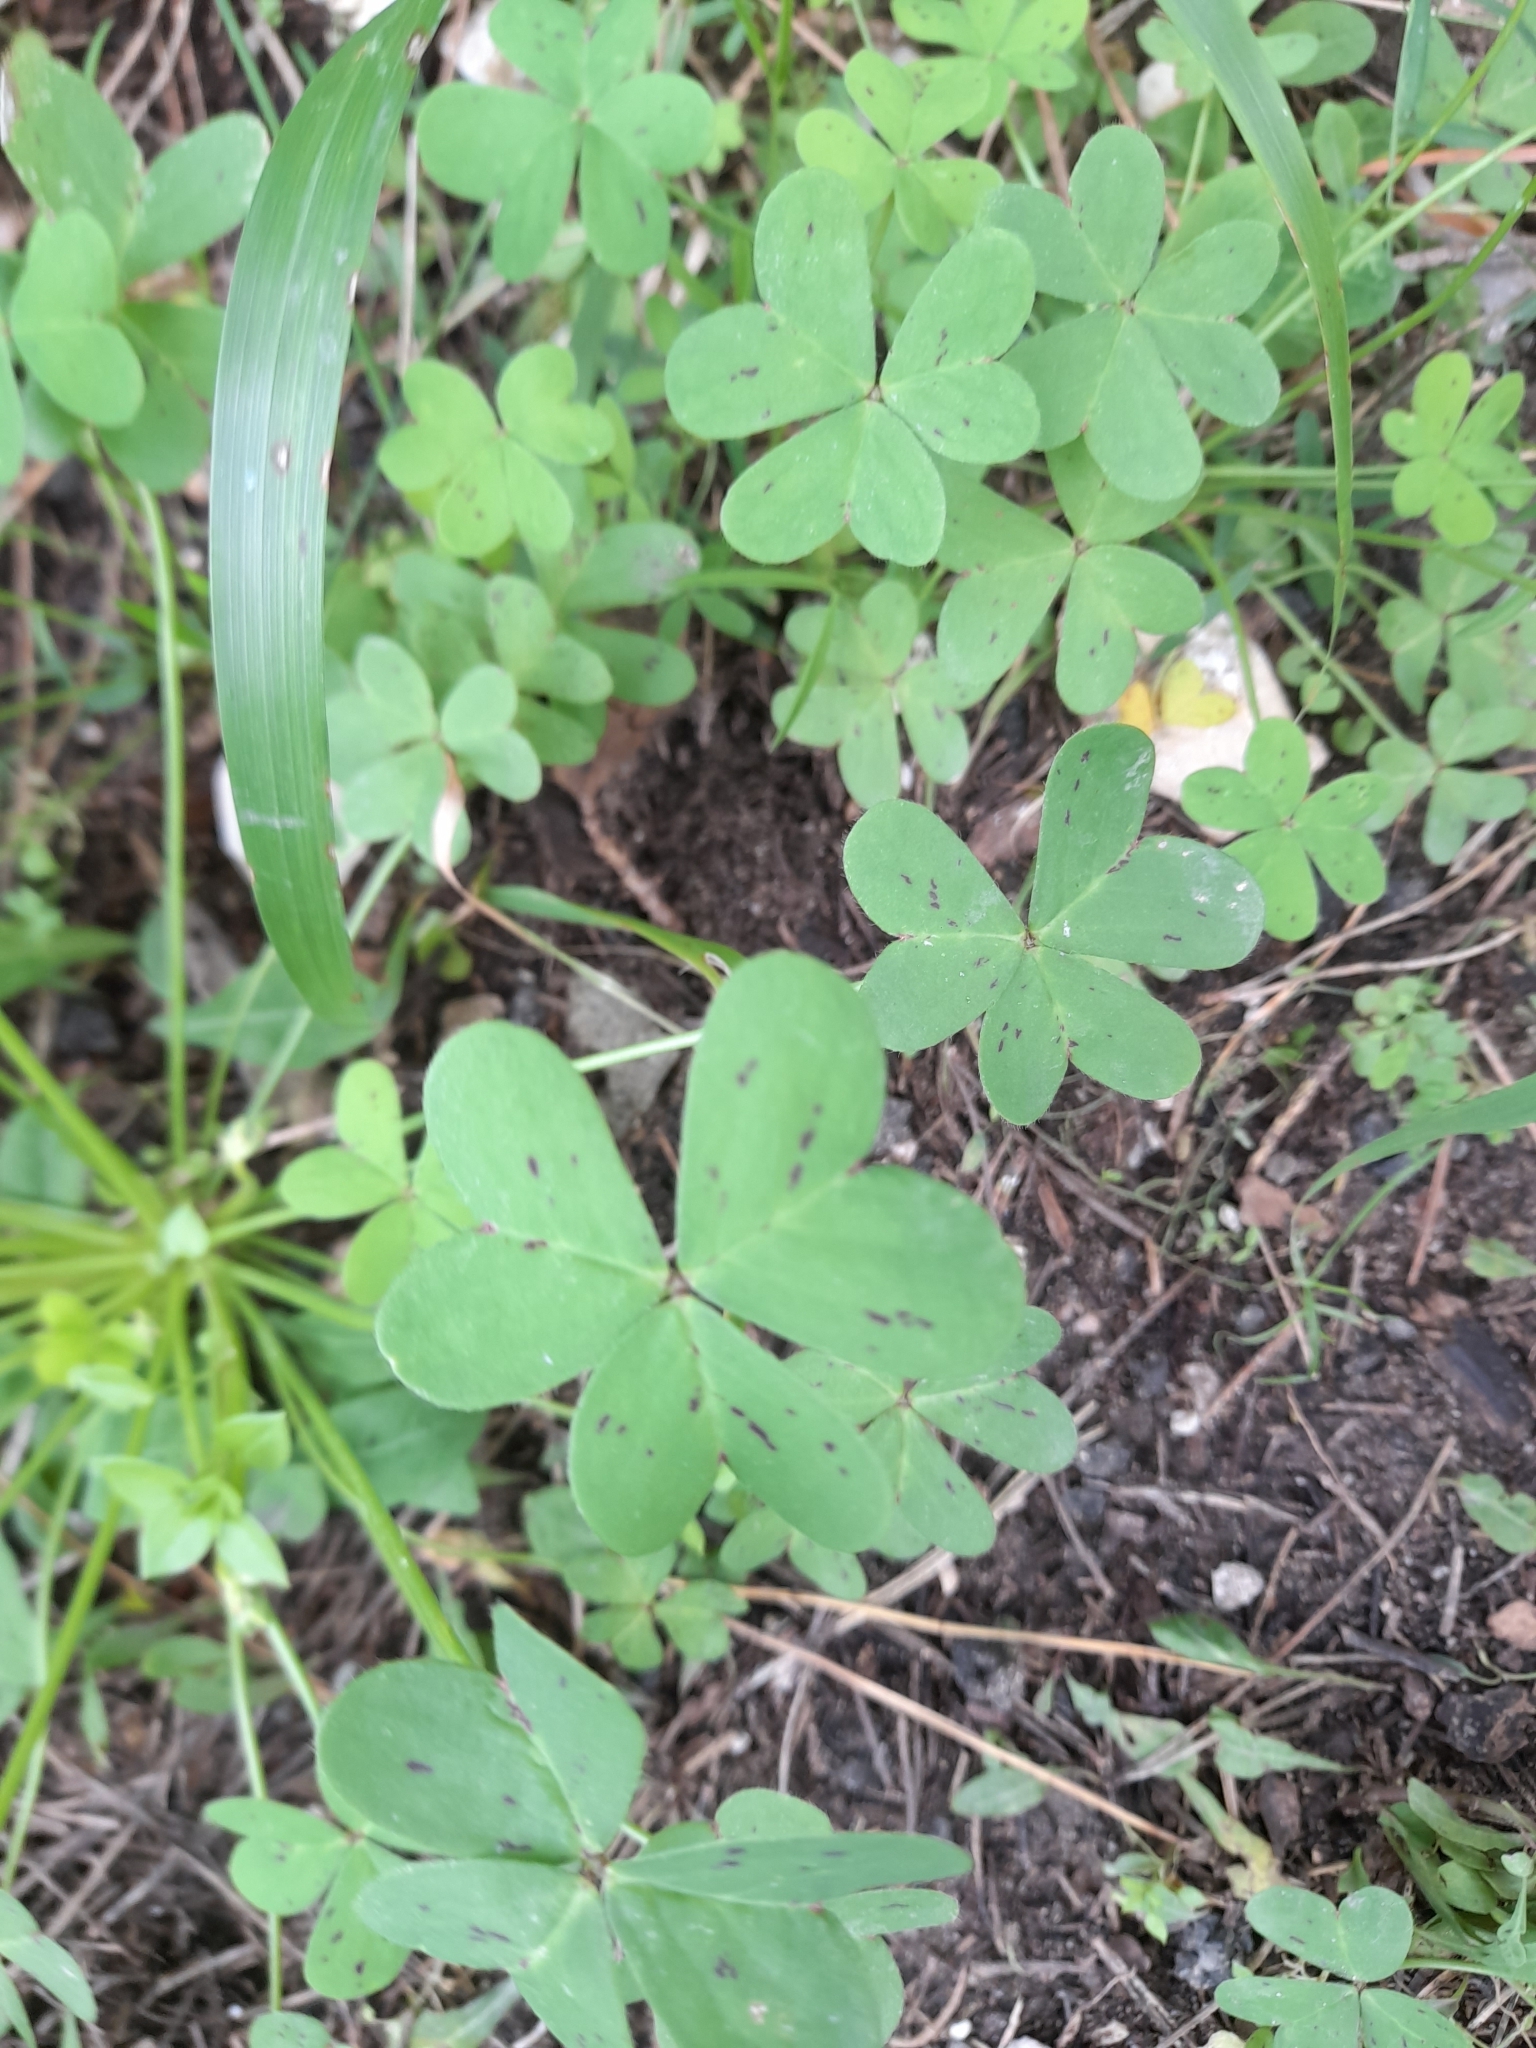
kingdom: Plantae
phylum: Tracheophyta
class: Magnoliopsida
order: Oxalidales
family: Oxalidaceae
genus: Oxalis
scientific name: Oxalis pes-caprae
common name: Bermuda-buttercup
